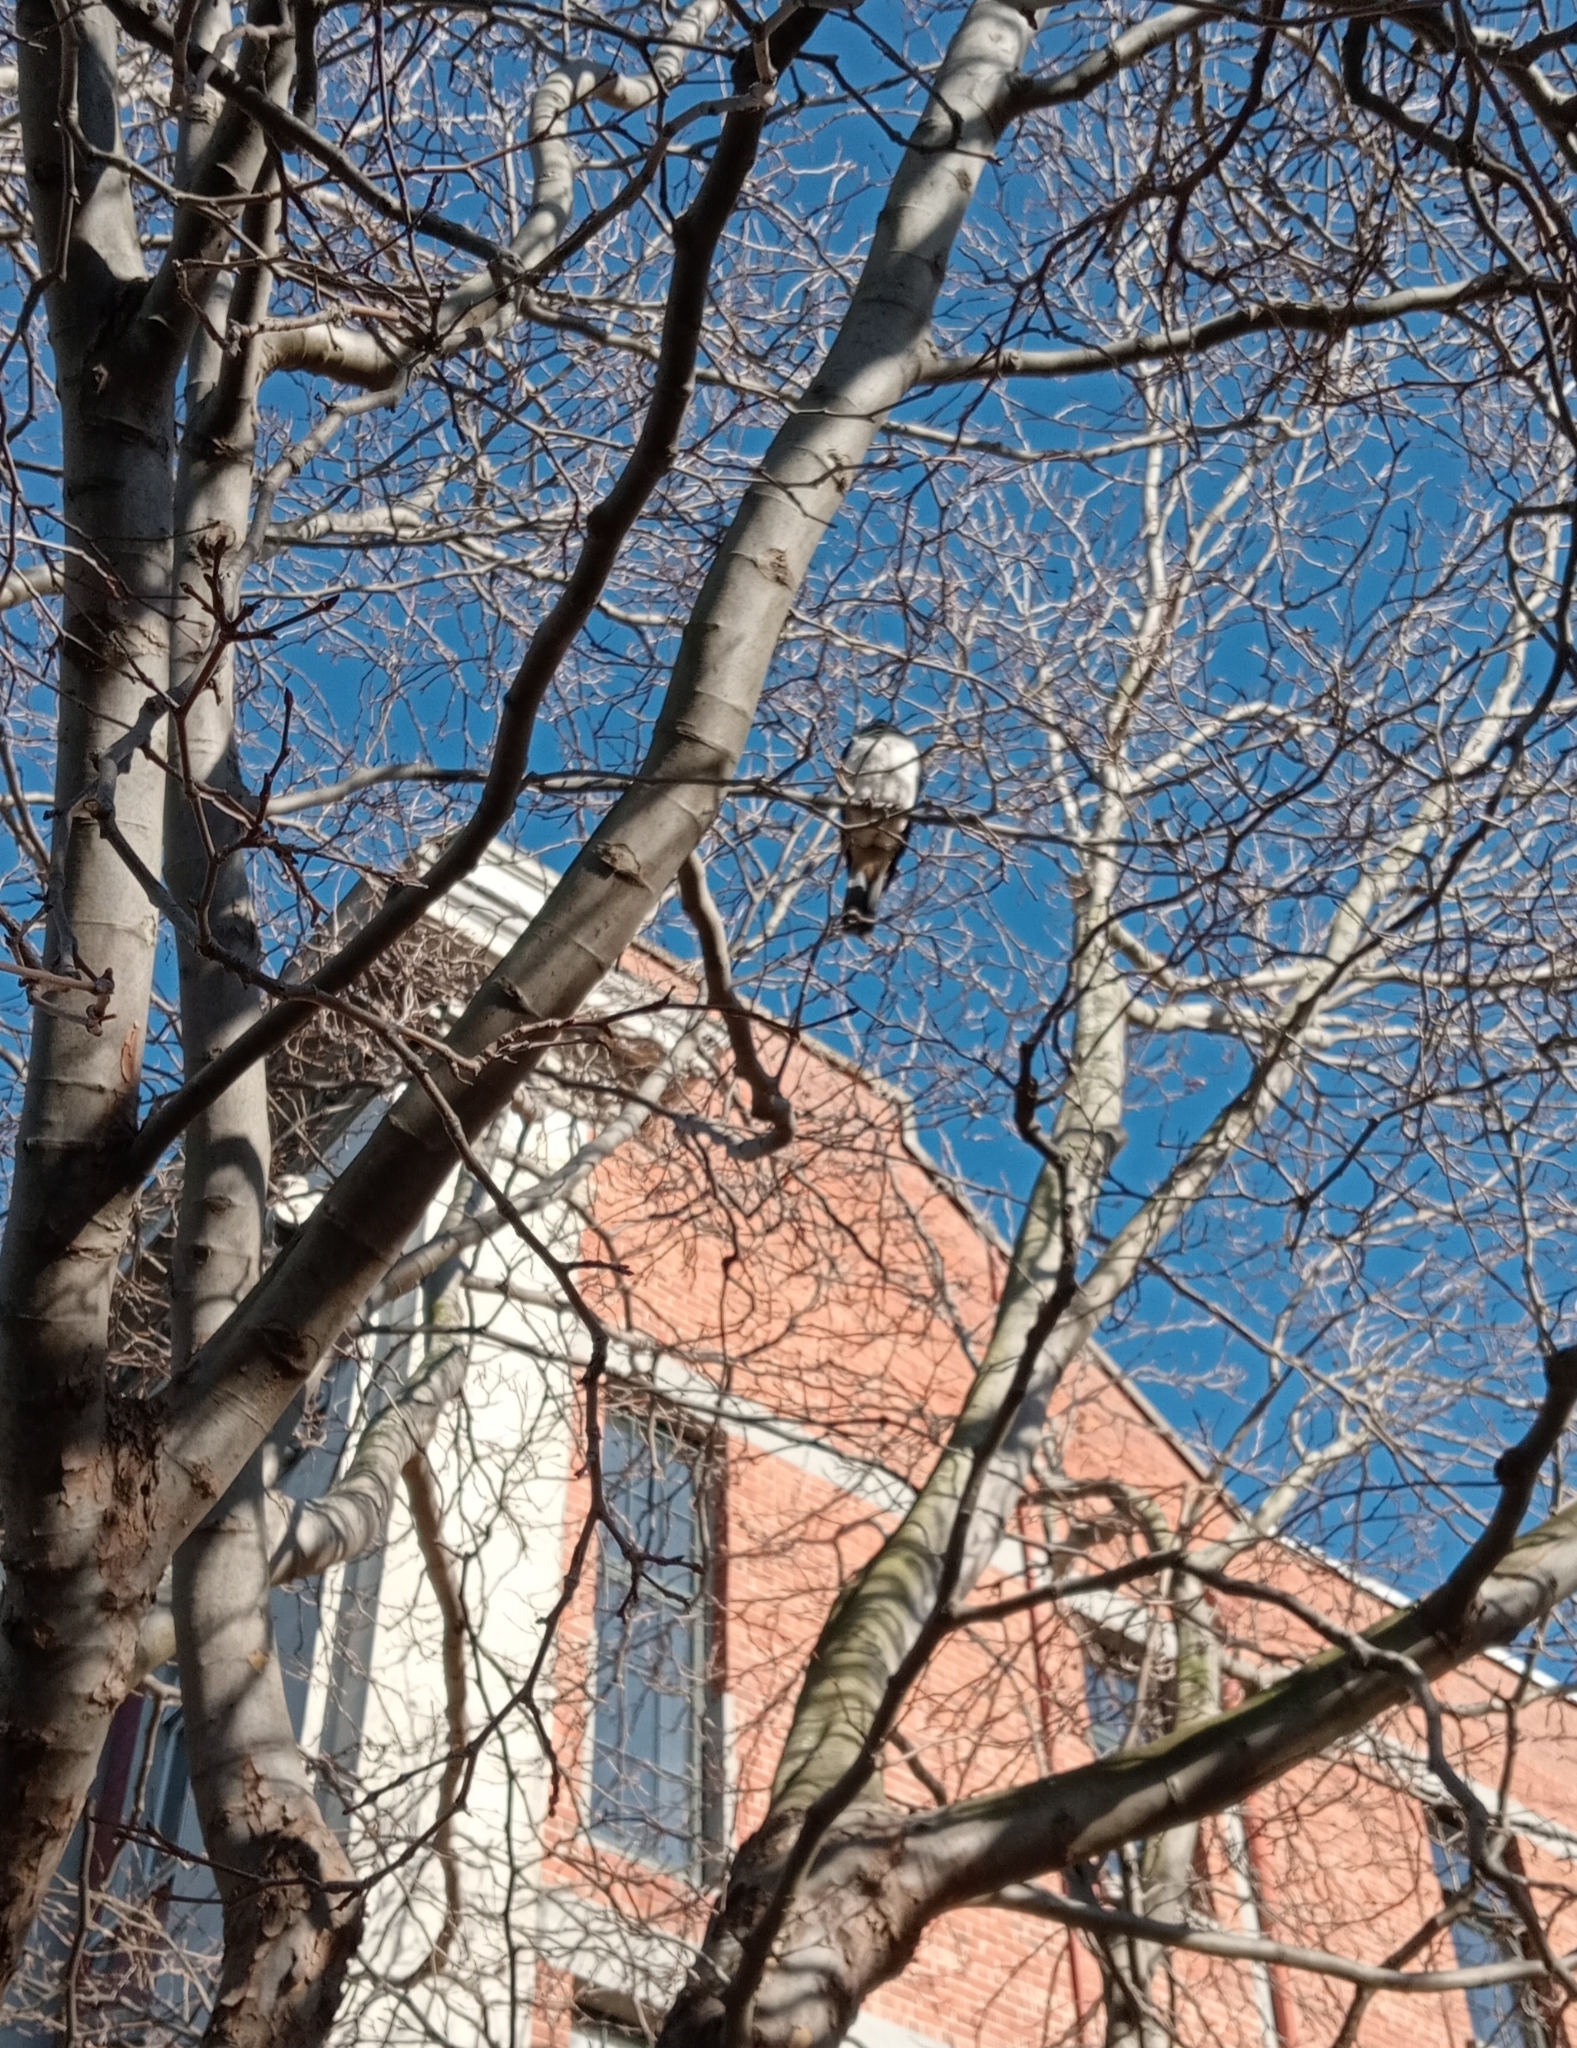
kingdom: Animalia
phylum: Chordata
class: Aves
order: Columbiformes
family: Columbidae
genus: Hemiphaga
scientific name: Hemiphaga novaeseelandiae
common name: New zealand pigeon
